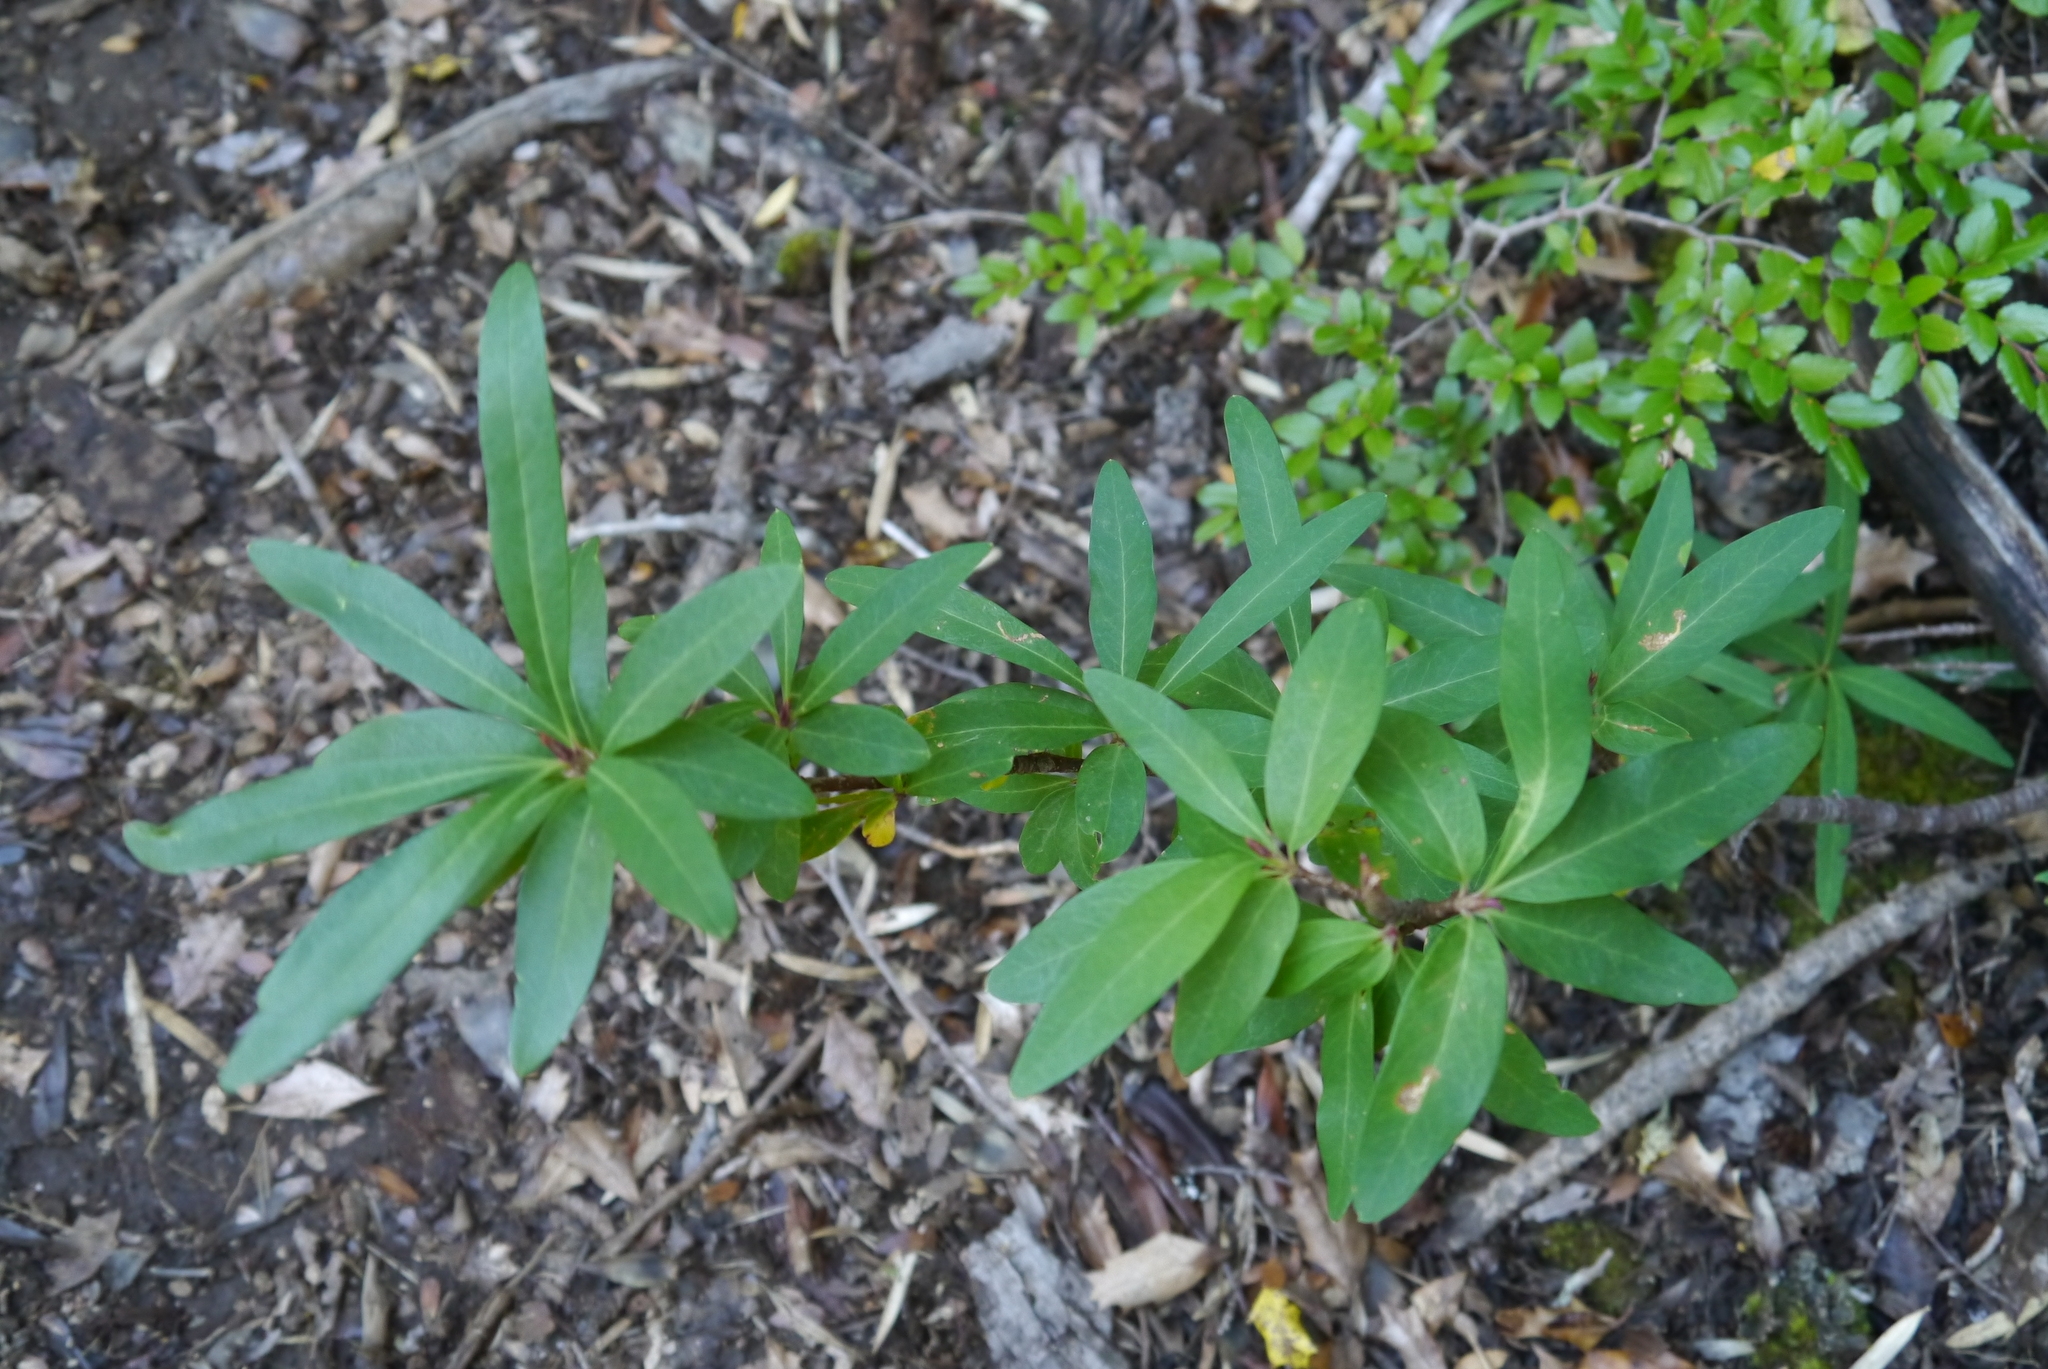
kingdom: Plantae
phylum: Tracheophyta
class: Magnoliopsida
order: Proteales
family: Proteaceae
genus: Embothrium
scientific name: Embothrium coccineum
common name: Chilean firebush
